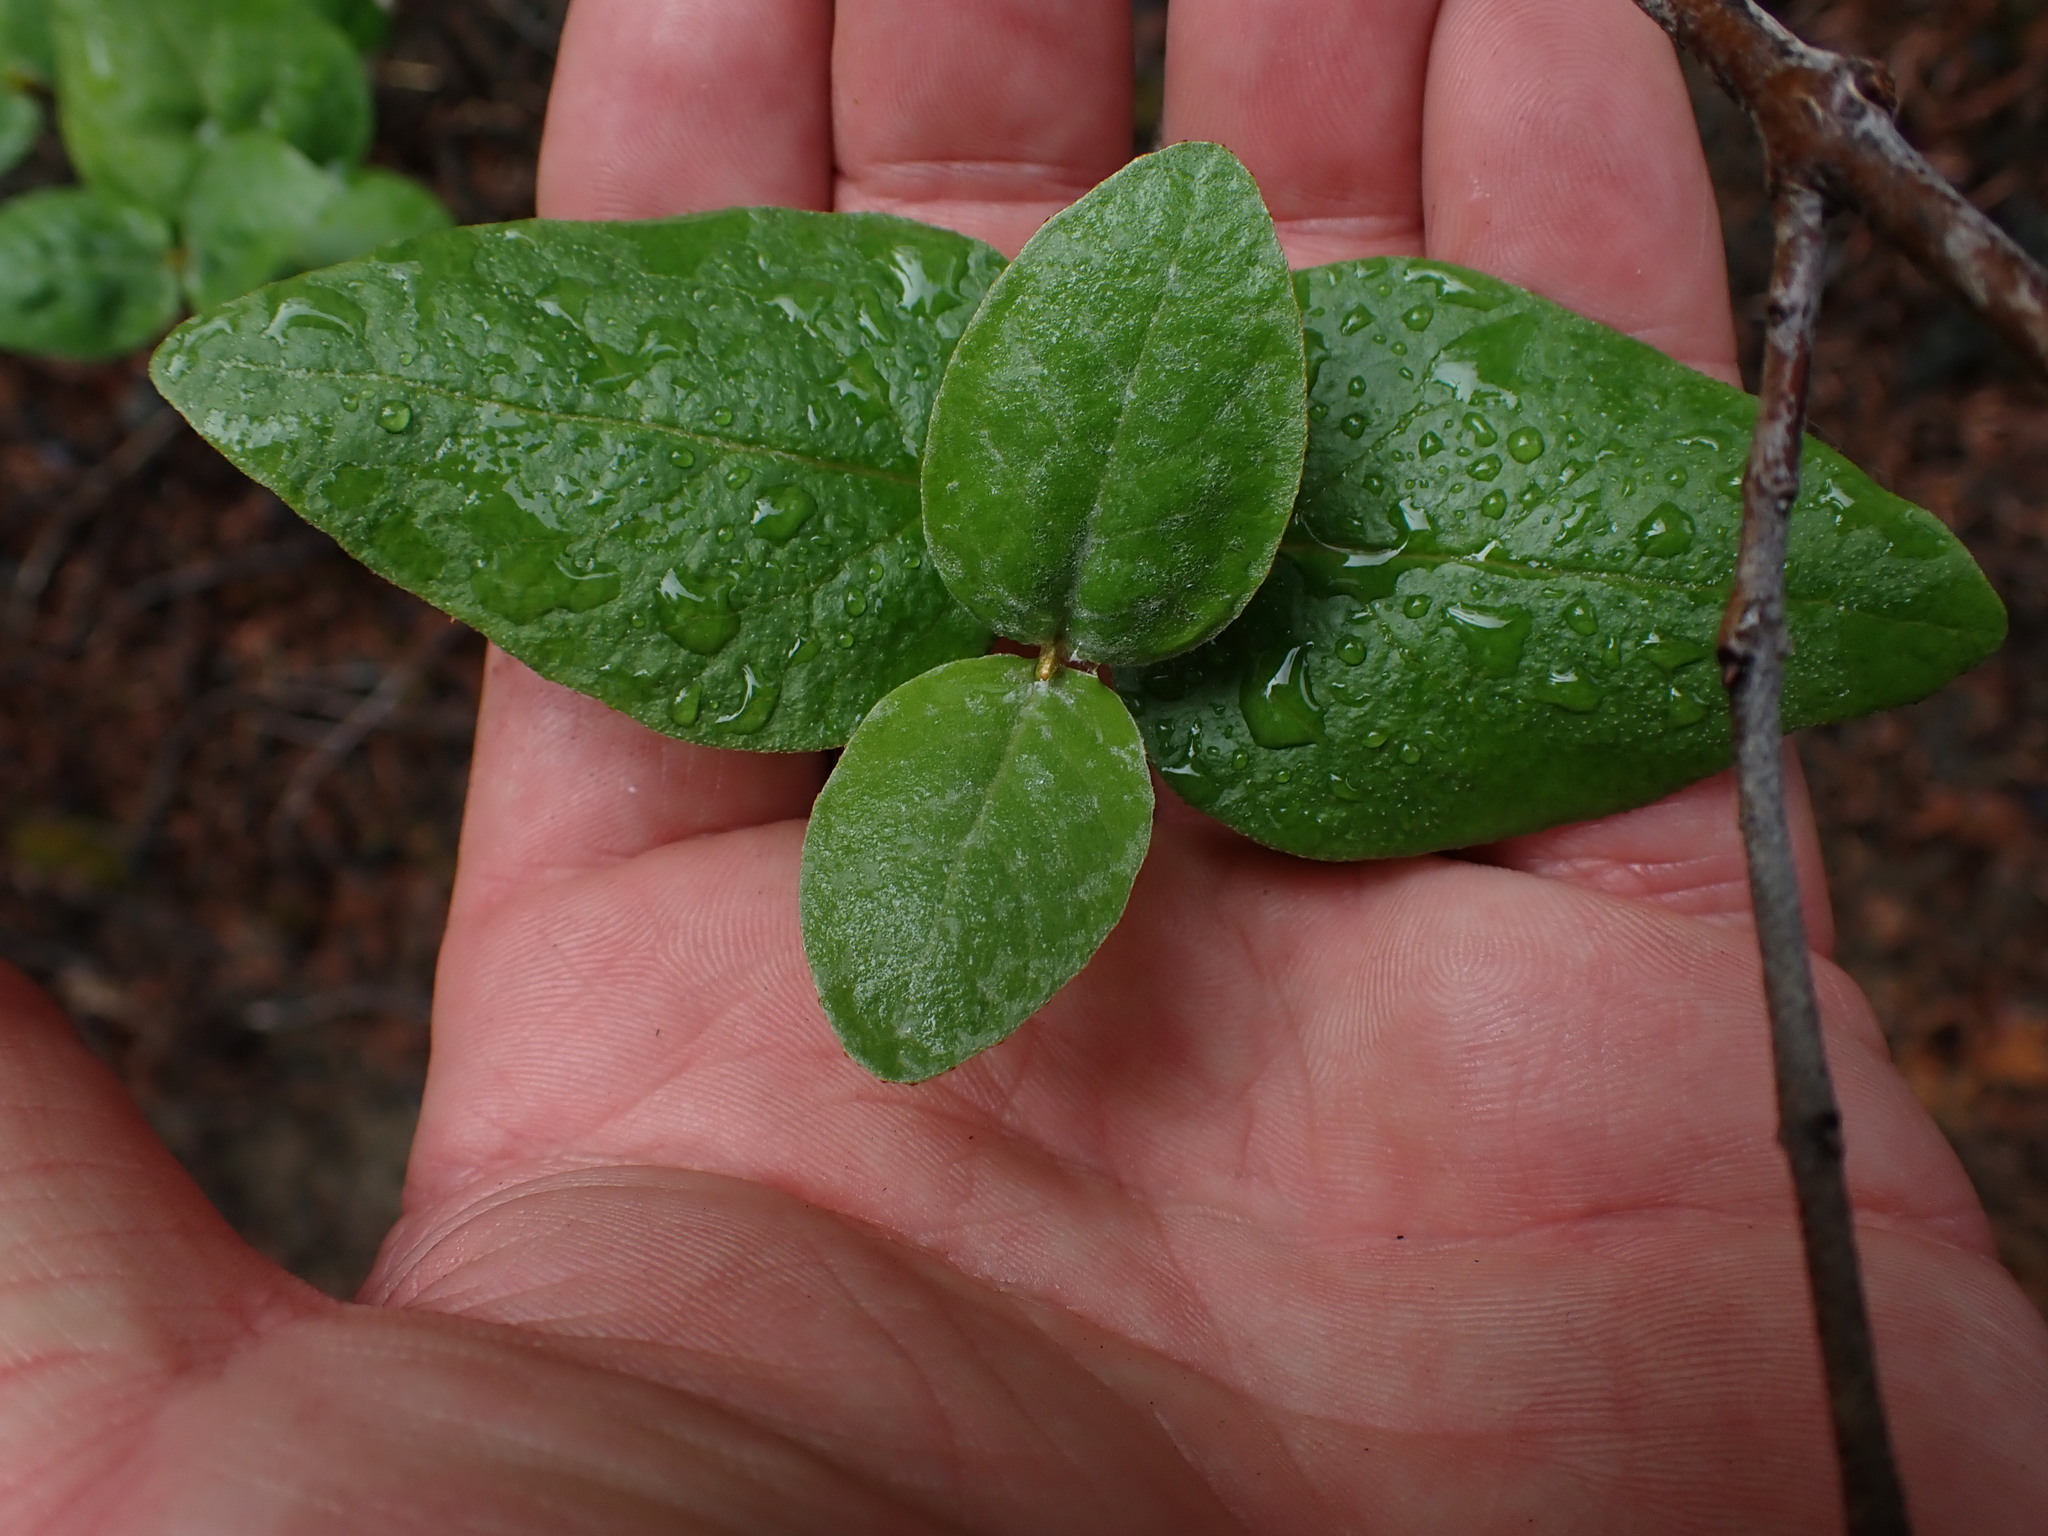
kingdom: Plantae
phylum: Tracheophyta
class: Magnoliopsida
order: Rosales
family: Elaeagnaceae
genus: Shepherdia
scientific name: Shepherdia canadensis
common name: Soapberry
